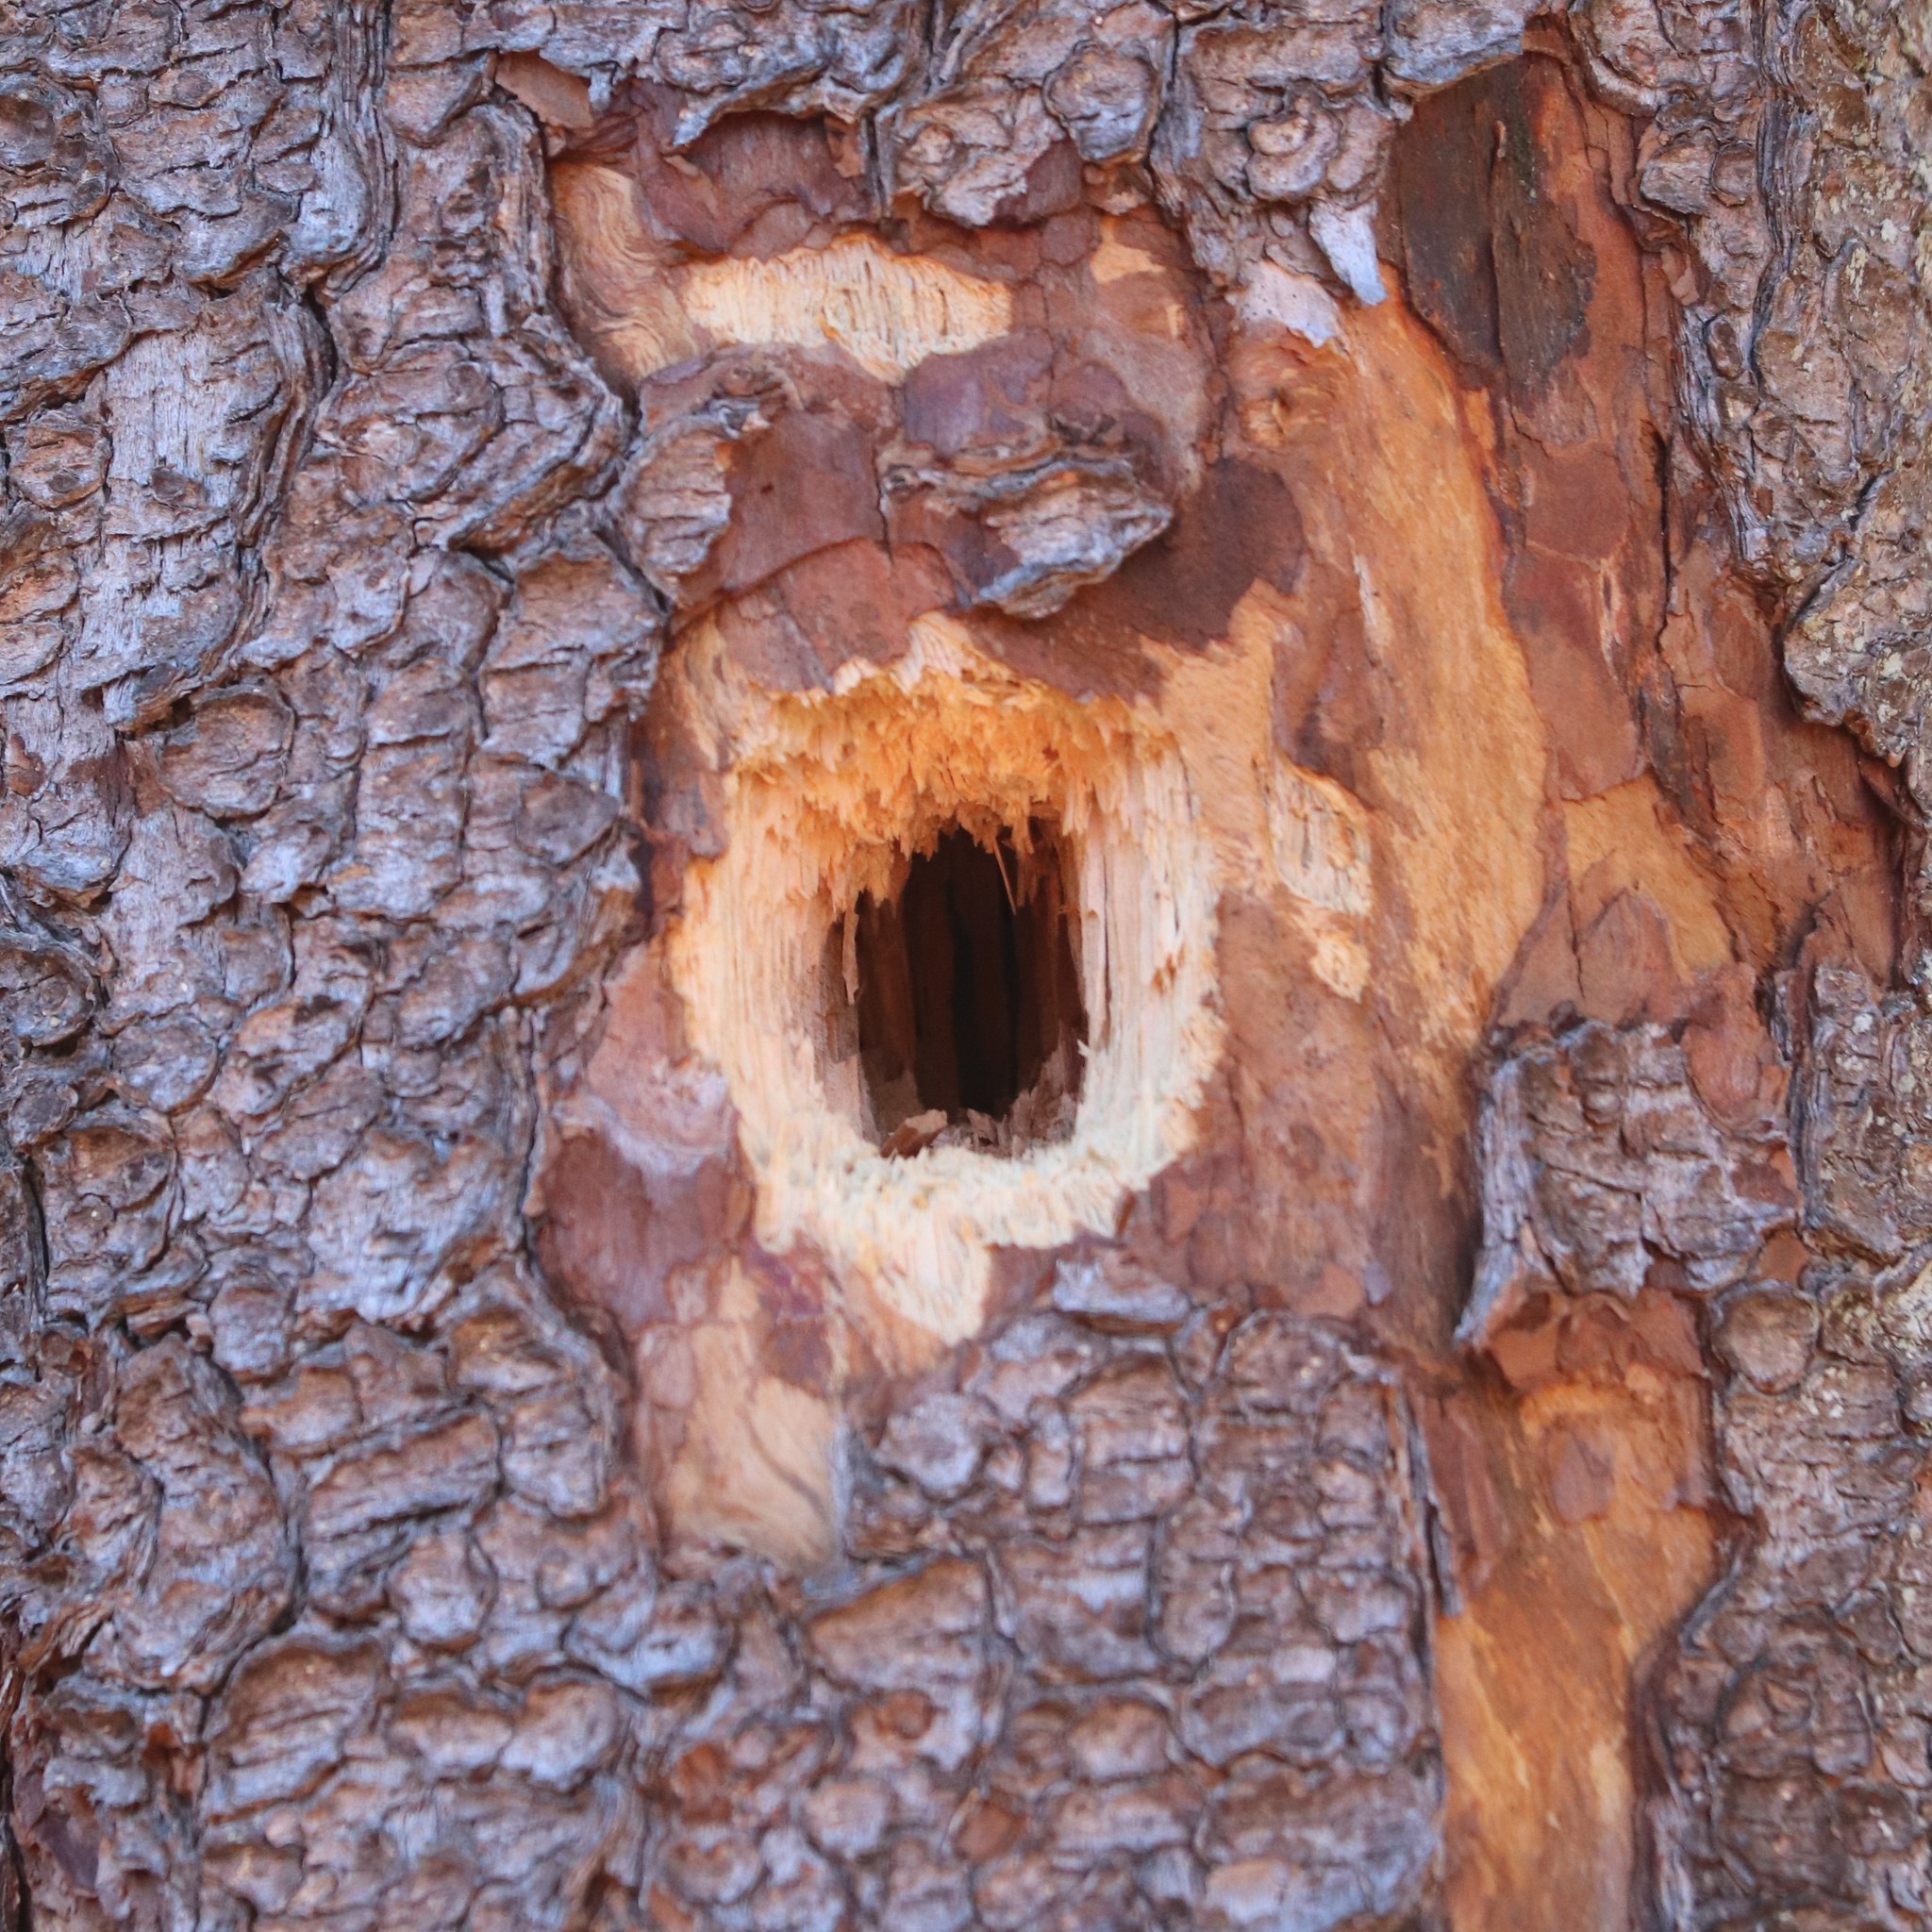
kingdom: Animalia
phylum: Chordata
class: Aves
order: Piciformes
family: Picidae
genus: Dryocopus
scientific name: Dryocopus pileatus
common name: Pileated woodpecker
